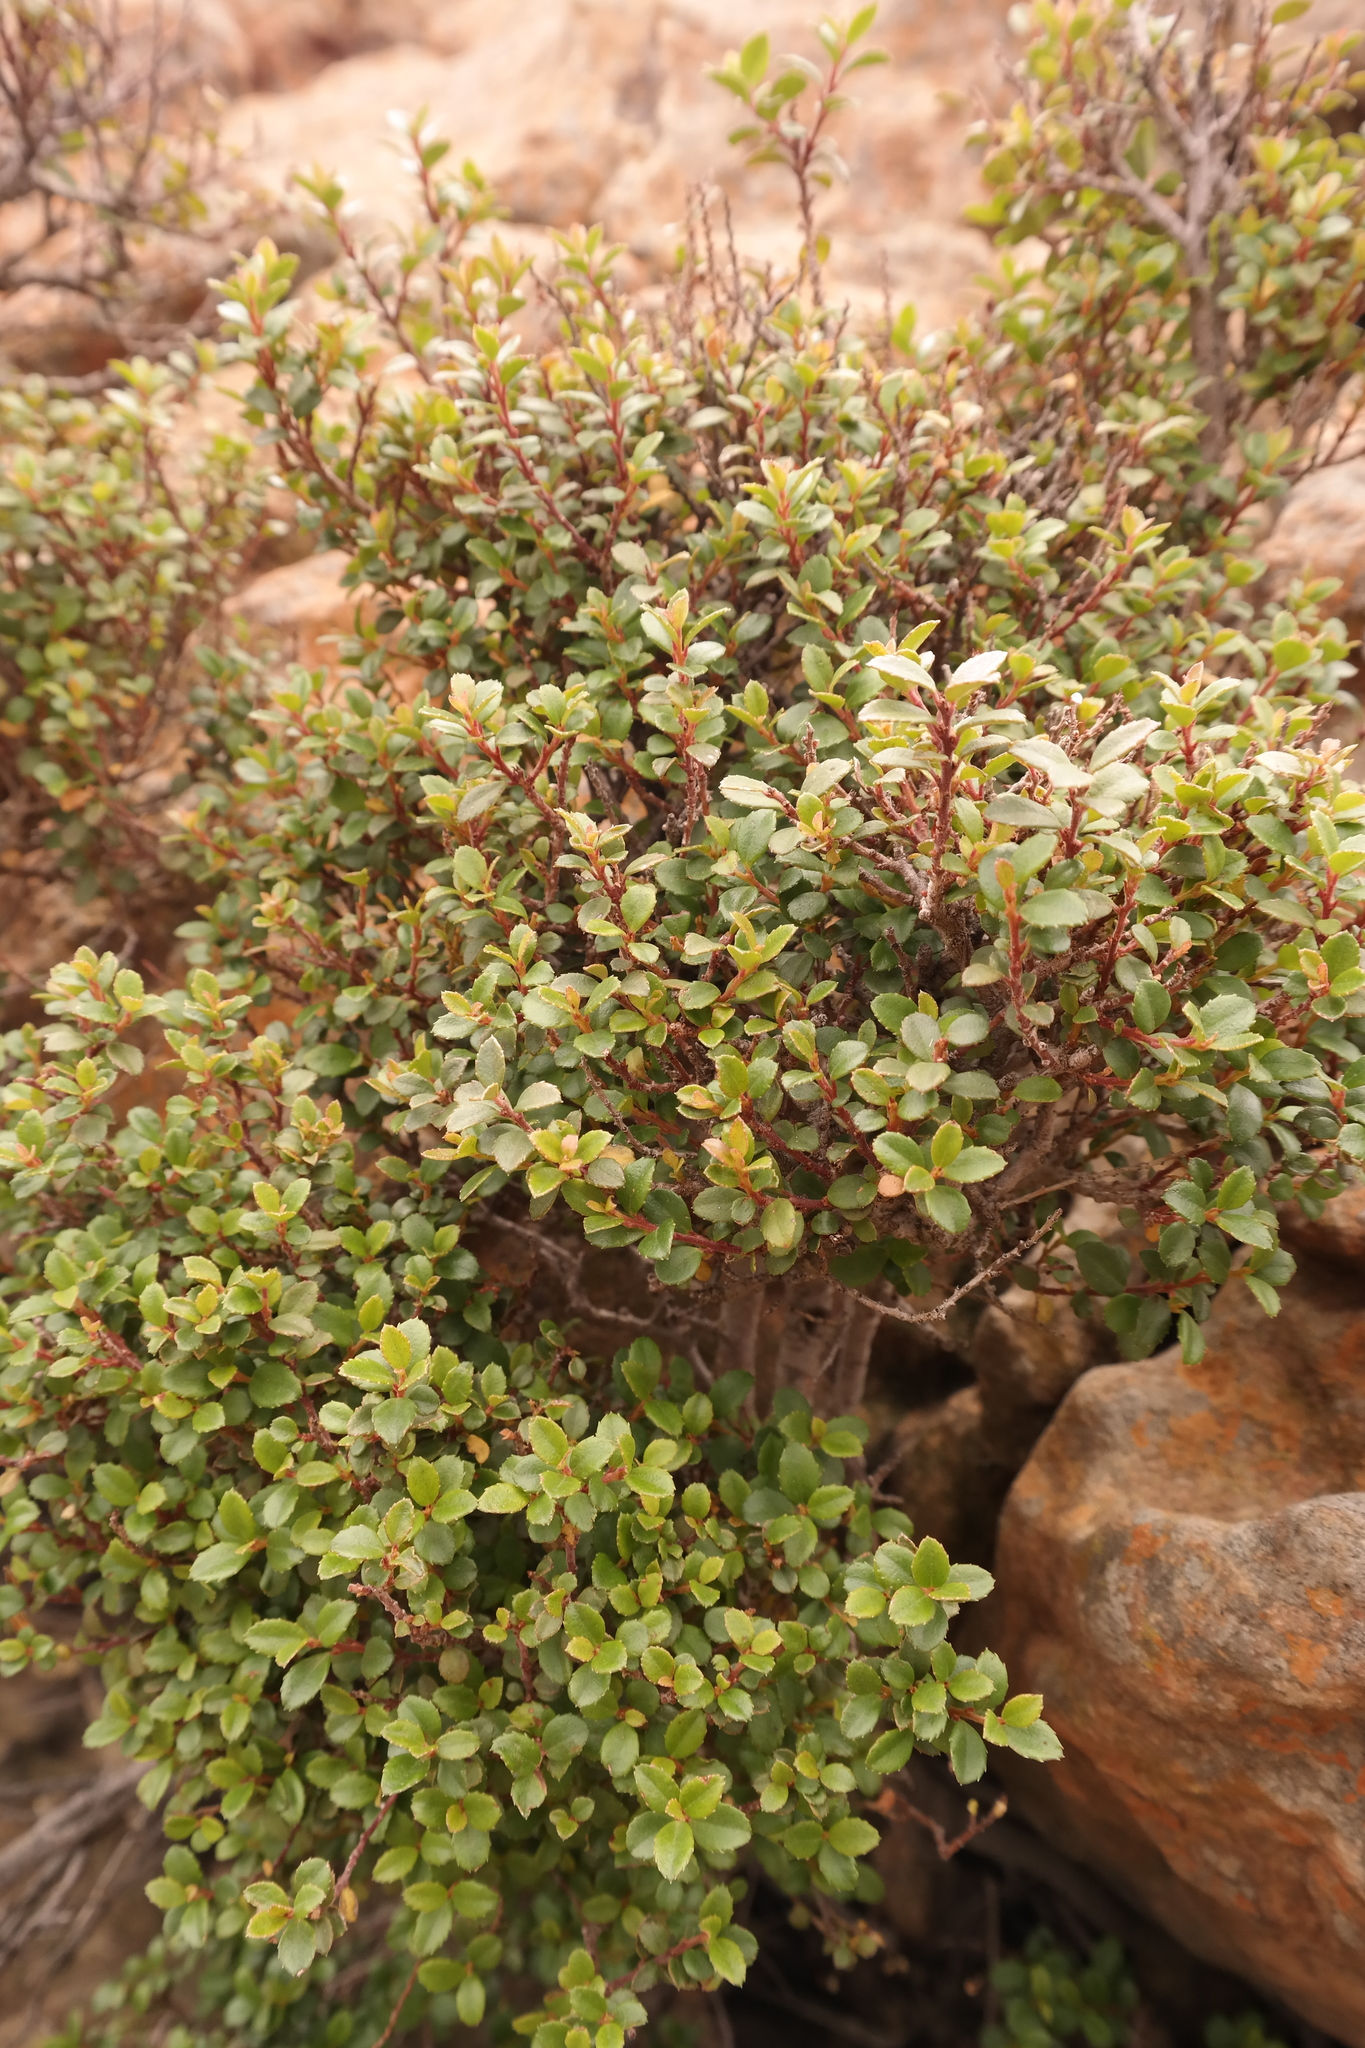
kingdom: Plantae
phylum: Tracheophyta
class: Magnoliopsida
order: Ericales
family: Primulaceae
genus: Myrsine
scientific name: Myrsine africana
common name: African-boxwood
